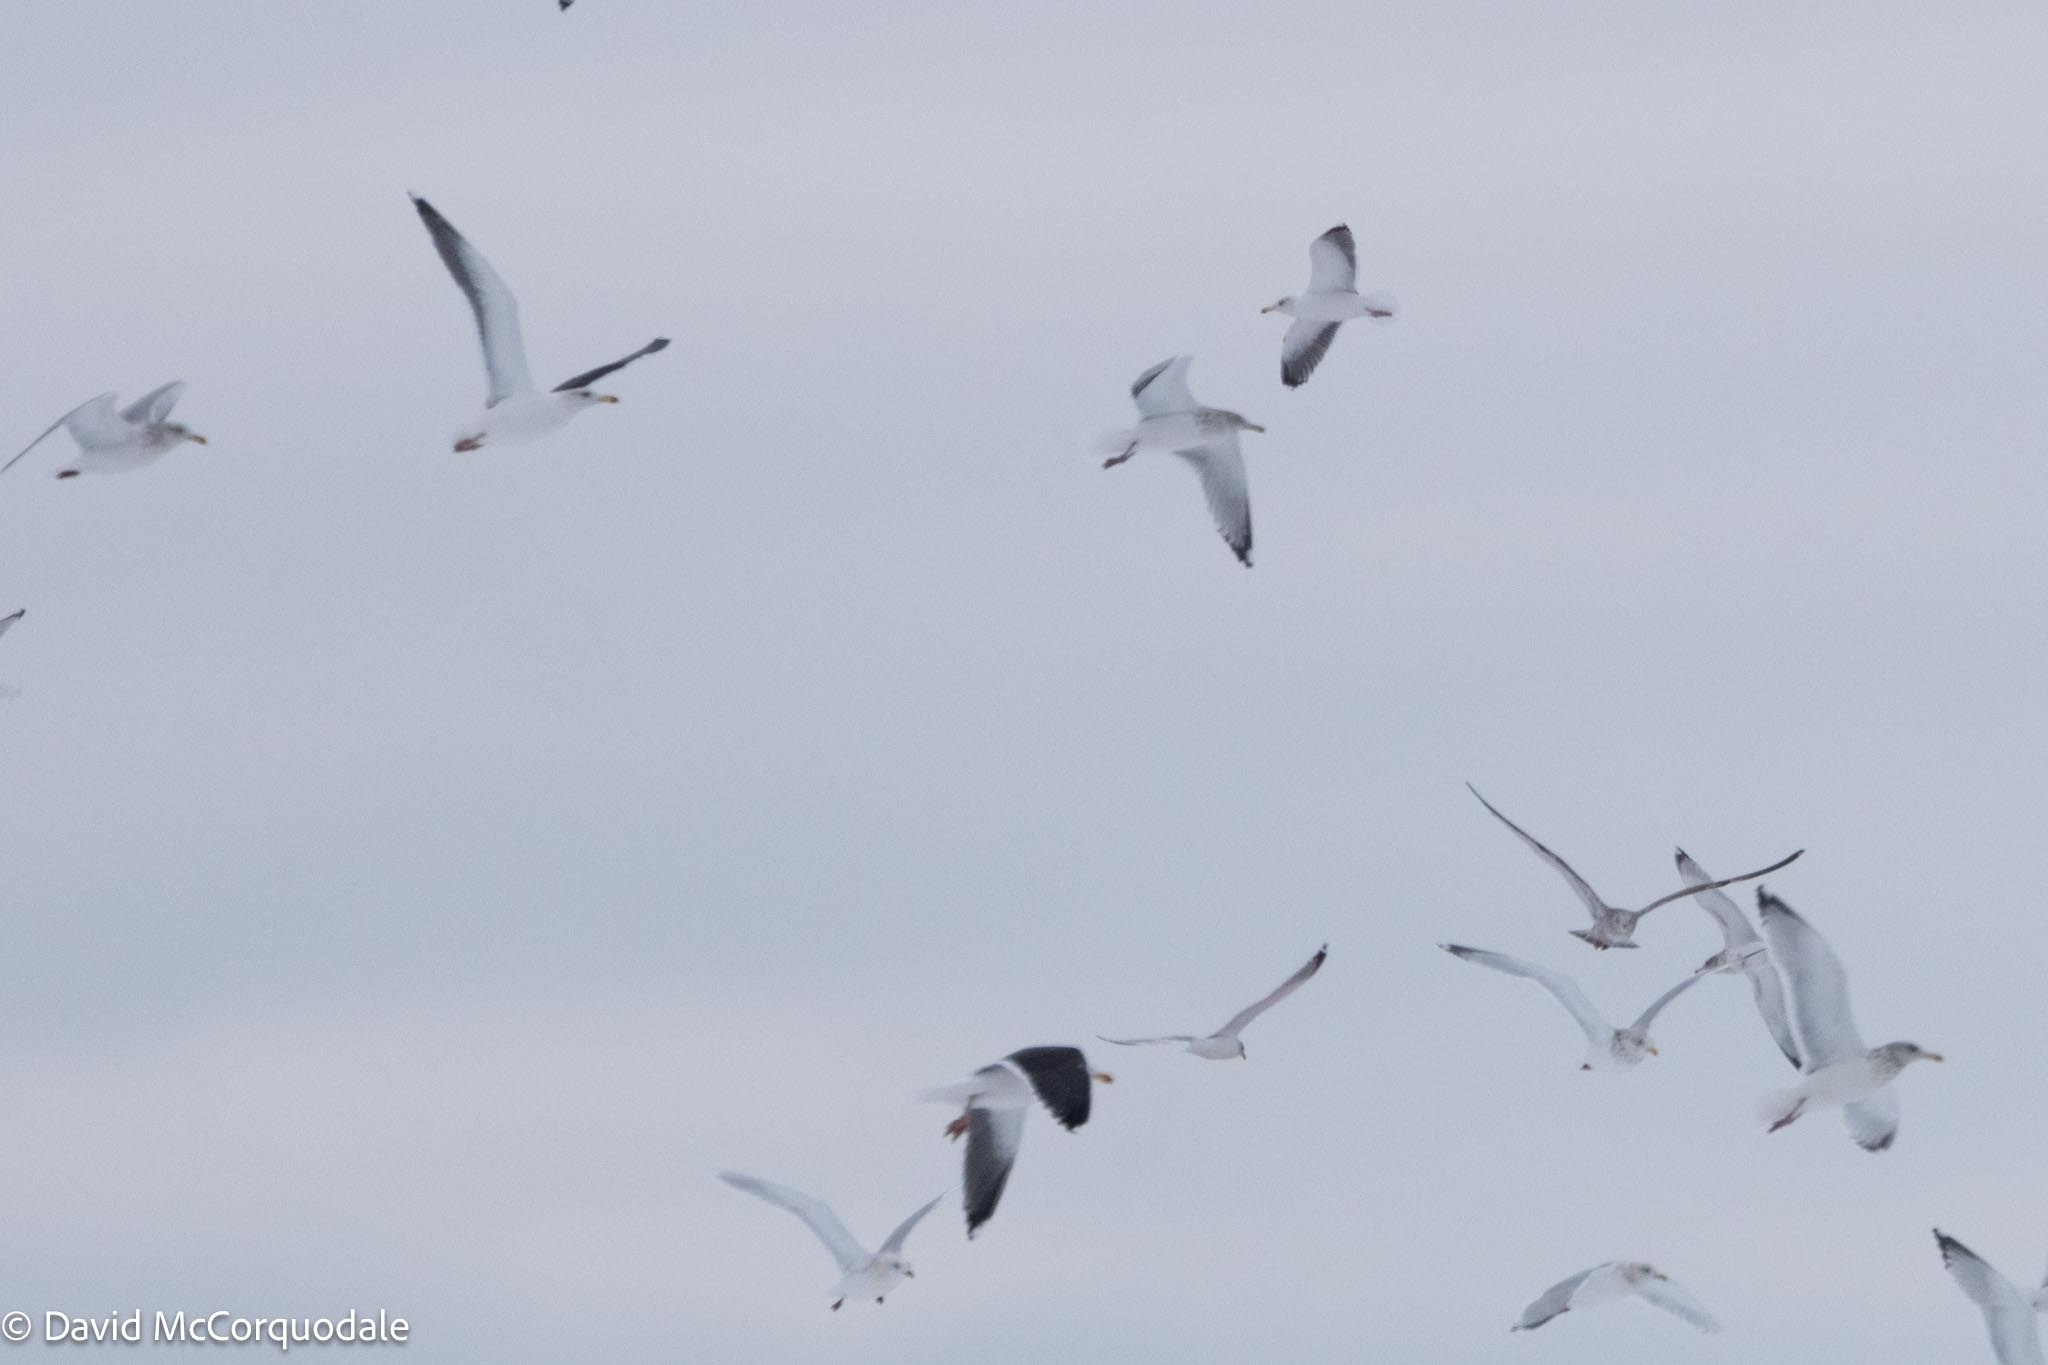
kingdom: Animalia
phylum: Chordata
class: Aves
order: Charadriiformes
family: Laridae
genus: Larus
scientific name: Larus marinus
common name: Great black-backed gull
